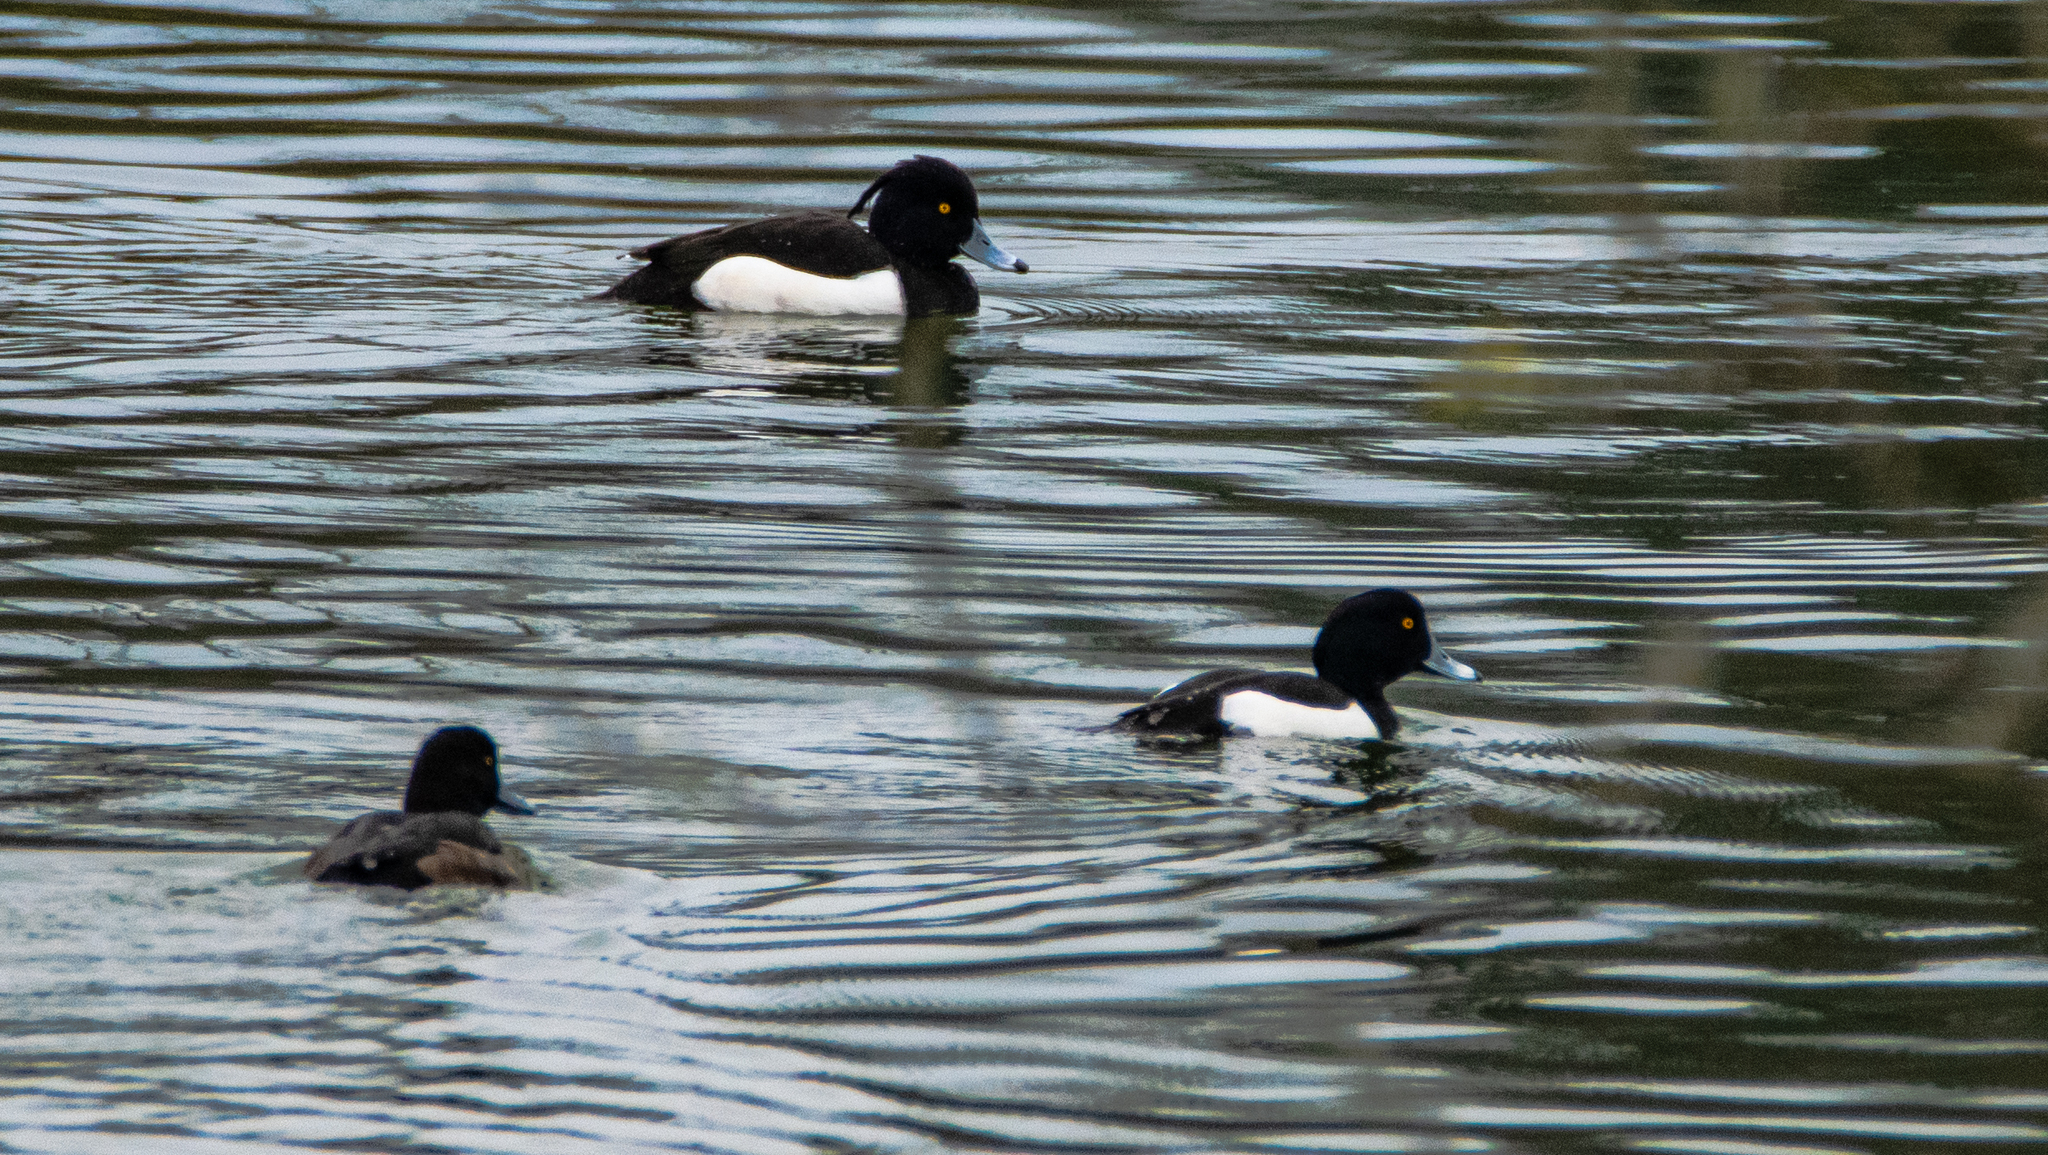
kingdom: Animalia
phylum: Chordata
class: Aves
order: Anseriformes
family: Anatidae
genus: Aythya
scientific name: Aythya fuligula
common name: Tufted duck
